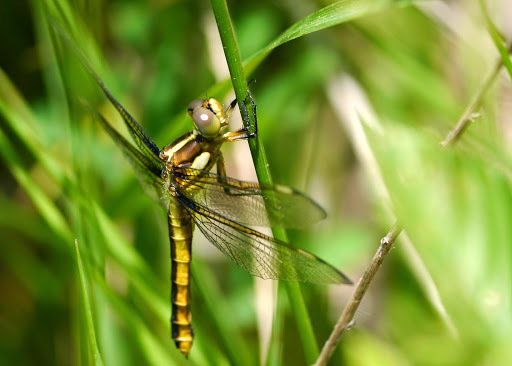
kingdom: Animalia
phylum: Arthropoda
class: Insecta
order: Odonata
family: Libellulidae
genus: Libellula
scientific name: Libellula cyanea
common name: Spangled skimmer
